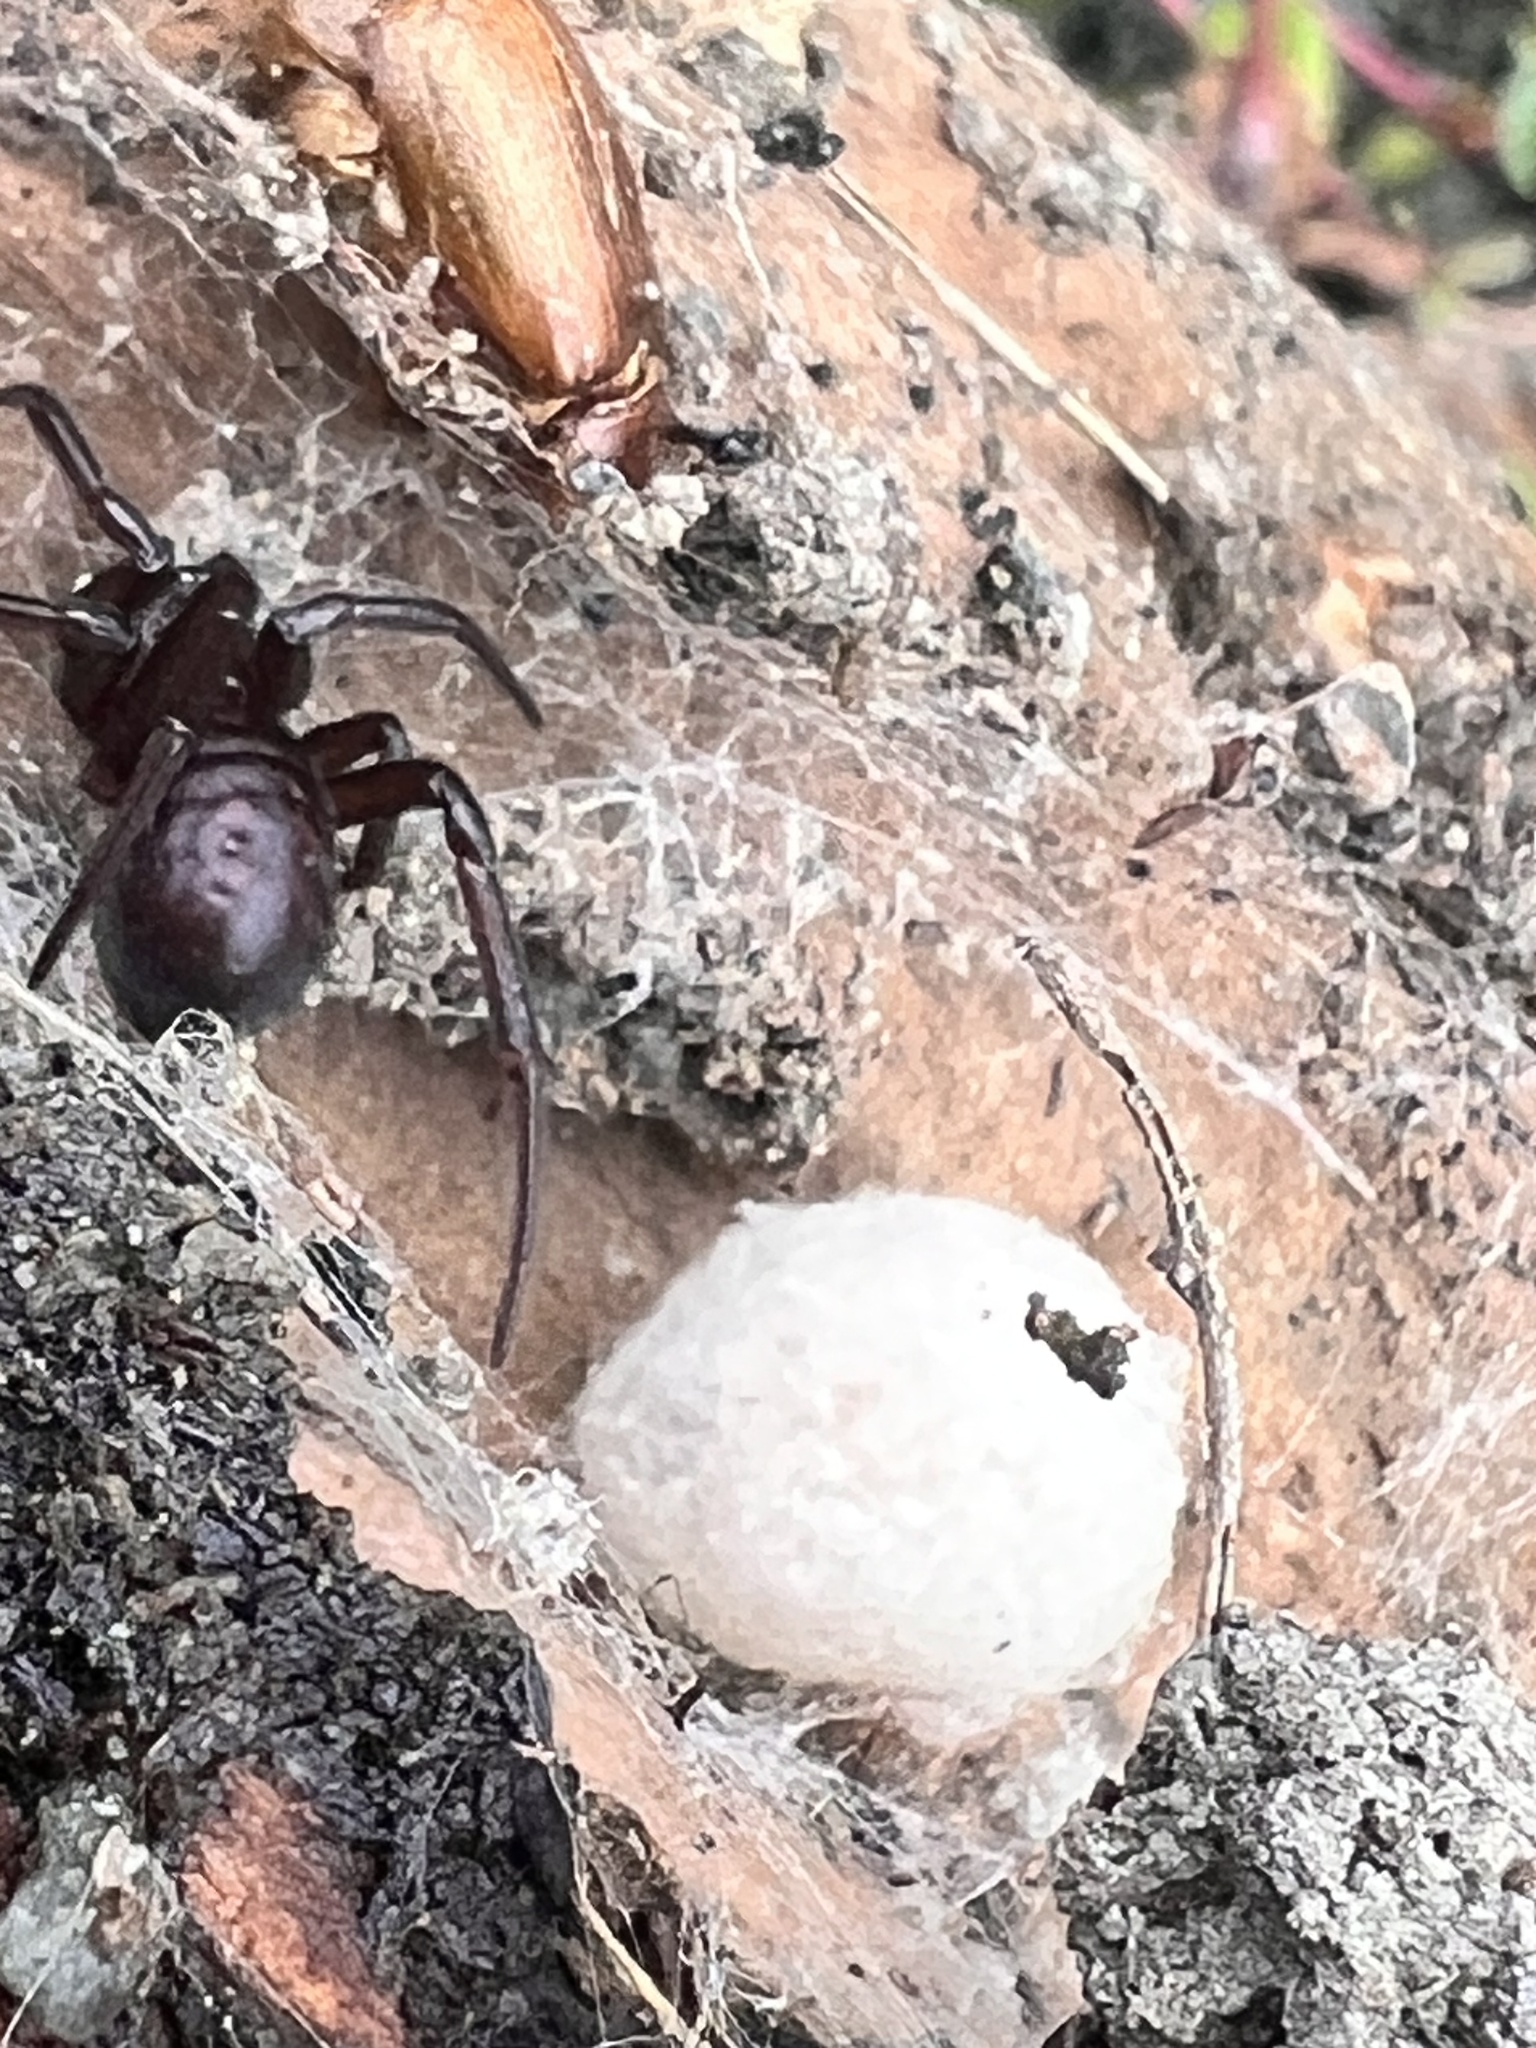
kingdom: Animalia
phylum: Arthropoda
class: Arachnida
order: Araneae
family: Theridiidae
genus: Steatoda
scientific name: Steatoda capensis
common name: Cobweb weaver
